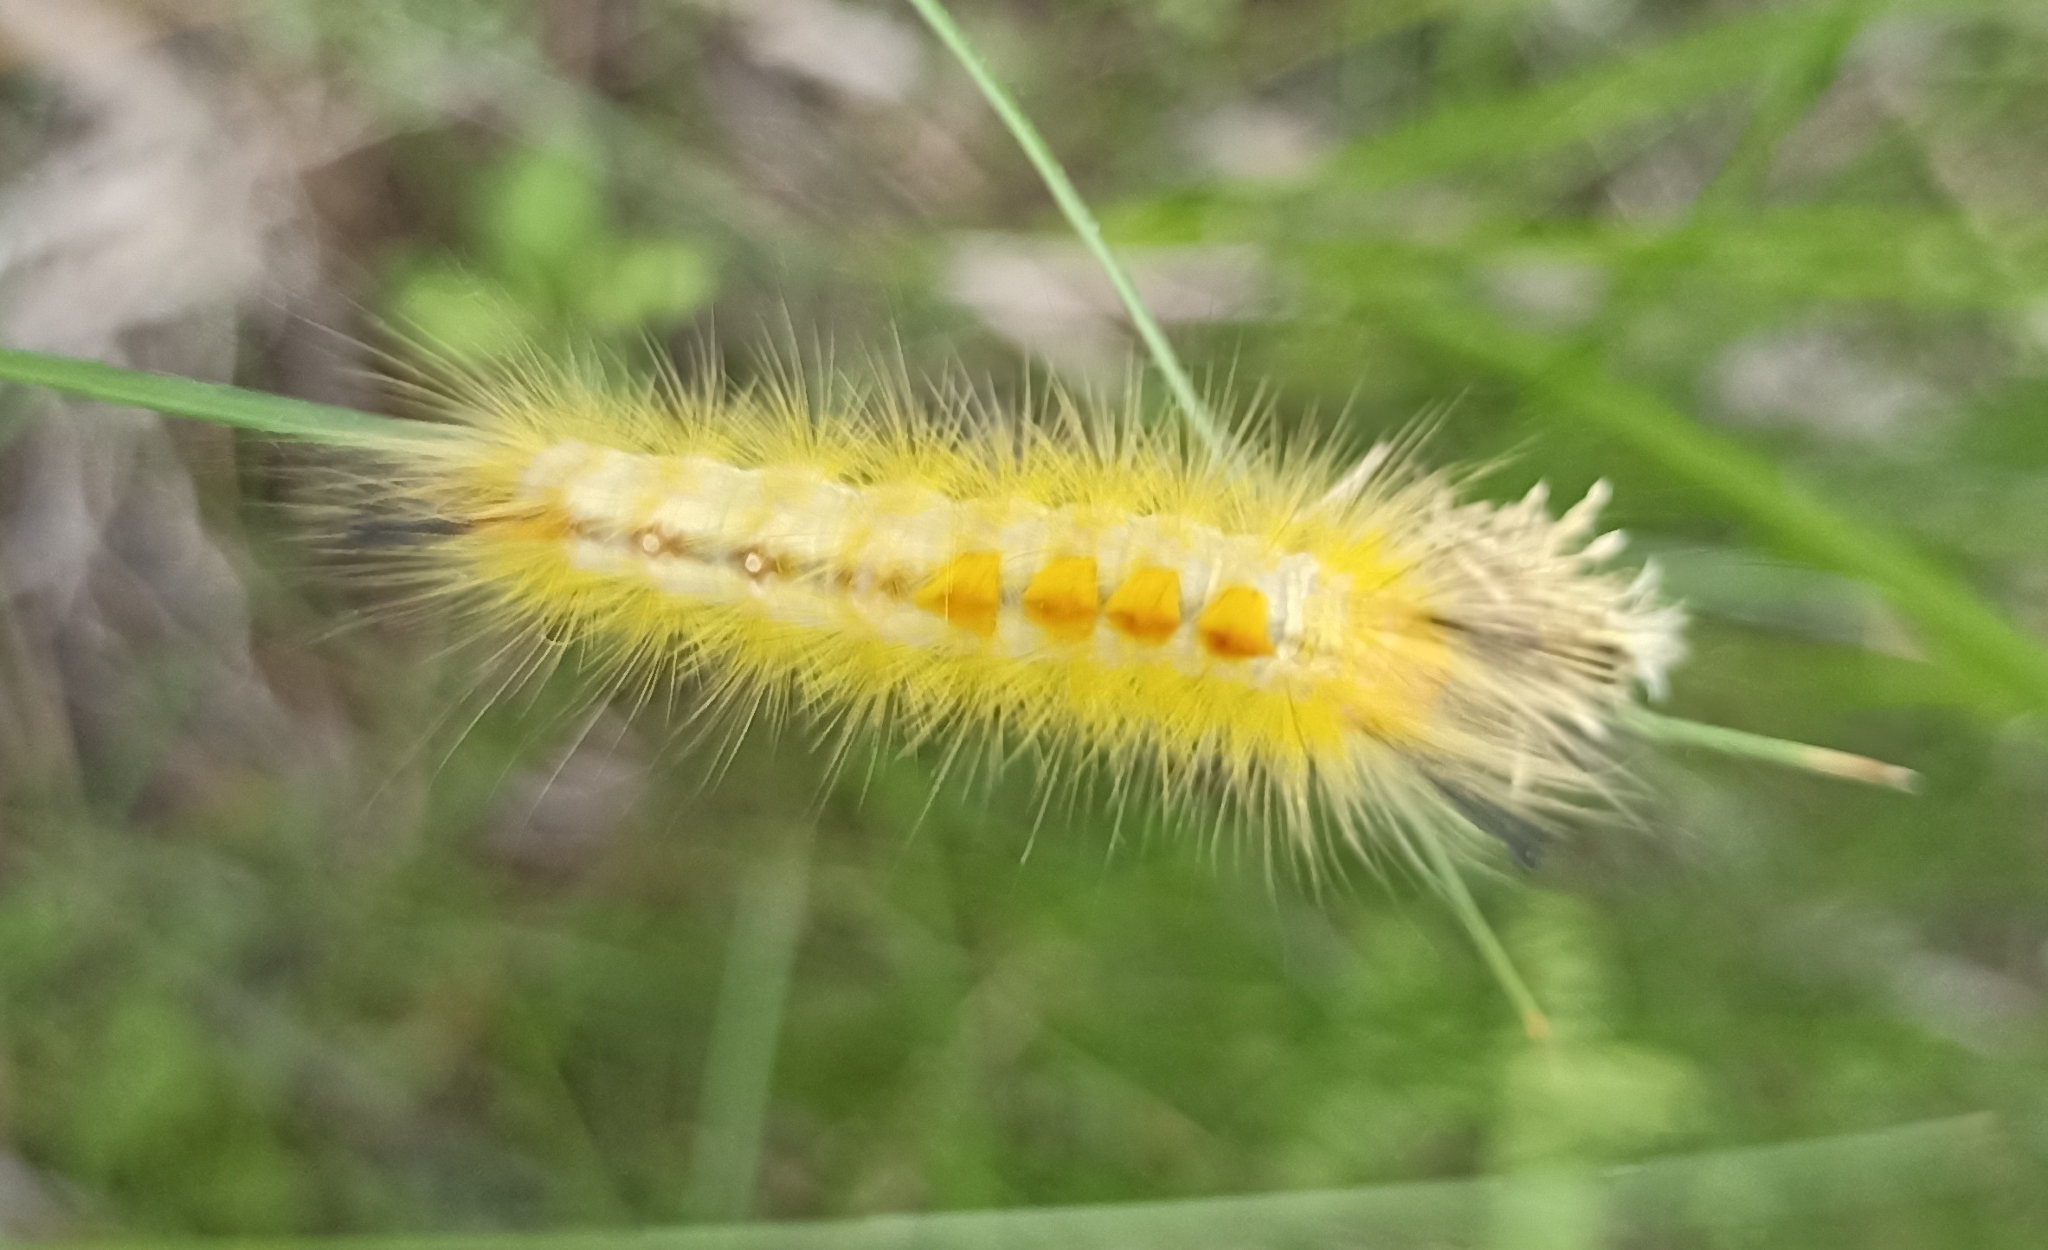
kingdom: Animalia
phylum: Arthropoda
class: Insecta
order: Lepidoptera
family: Erebidae
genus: Laelia
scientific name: Laelia coenosa
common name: Reed tussock
